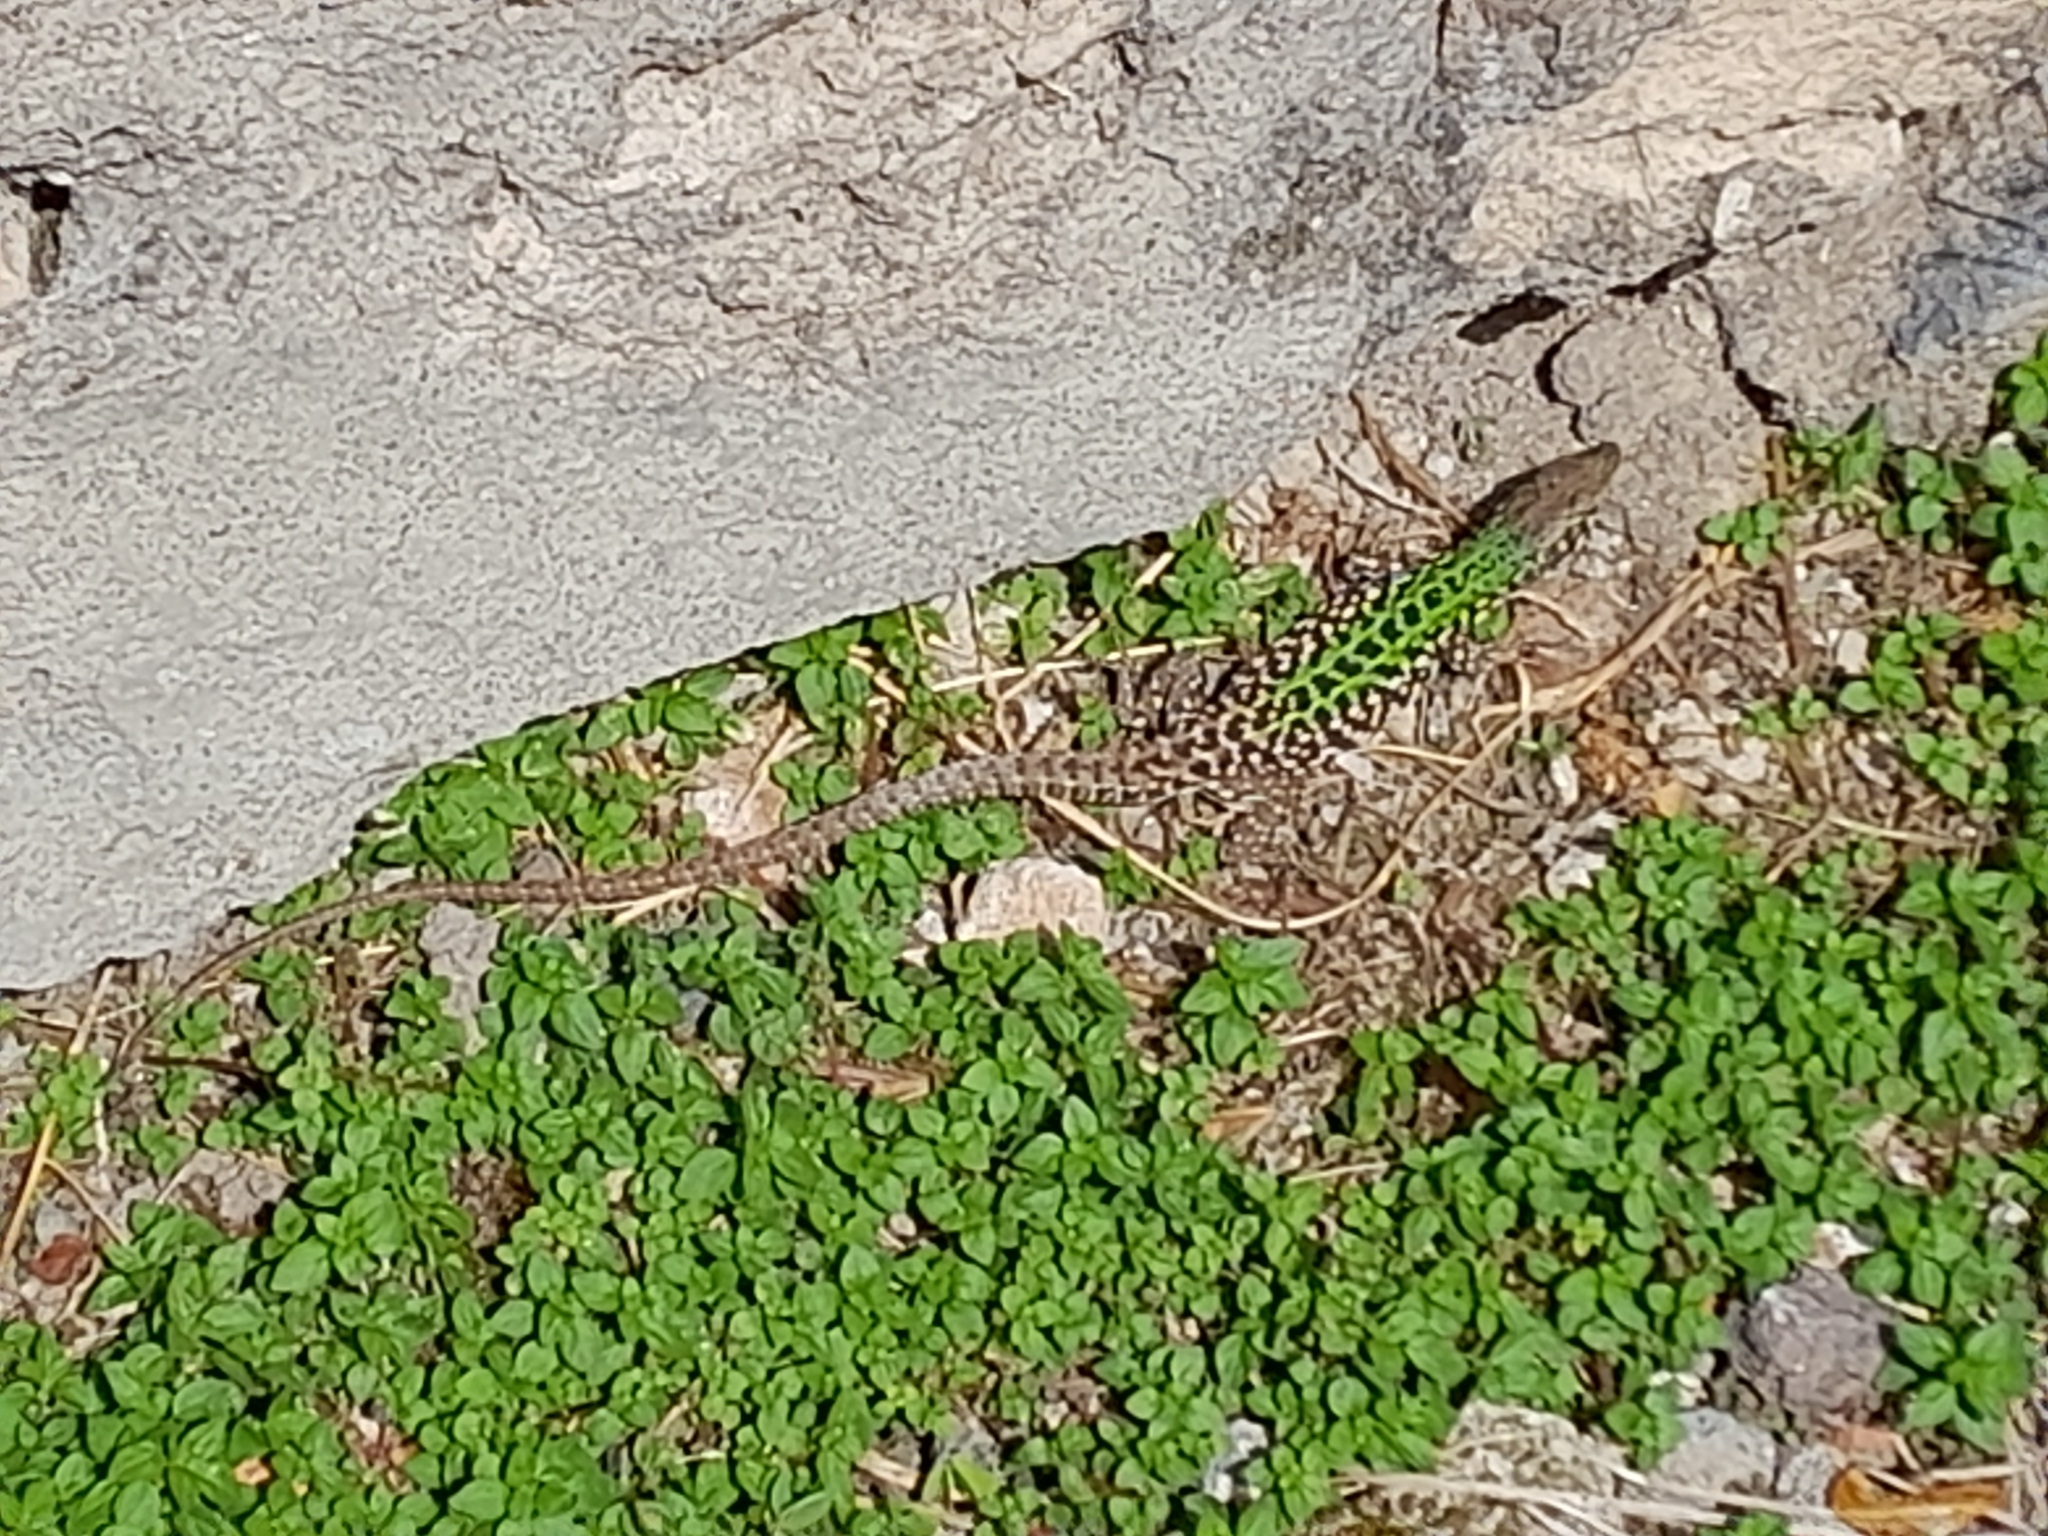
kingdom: Animalia
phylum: Chordata
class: Squamata
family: Lacertidae
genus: Podarcis
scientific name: Podarcis siculus
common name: Italian wall lizard
